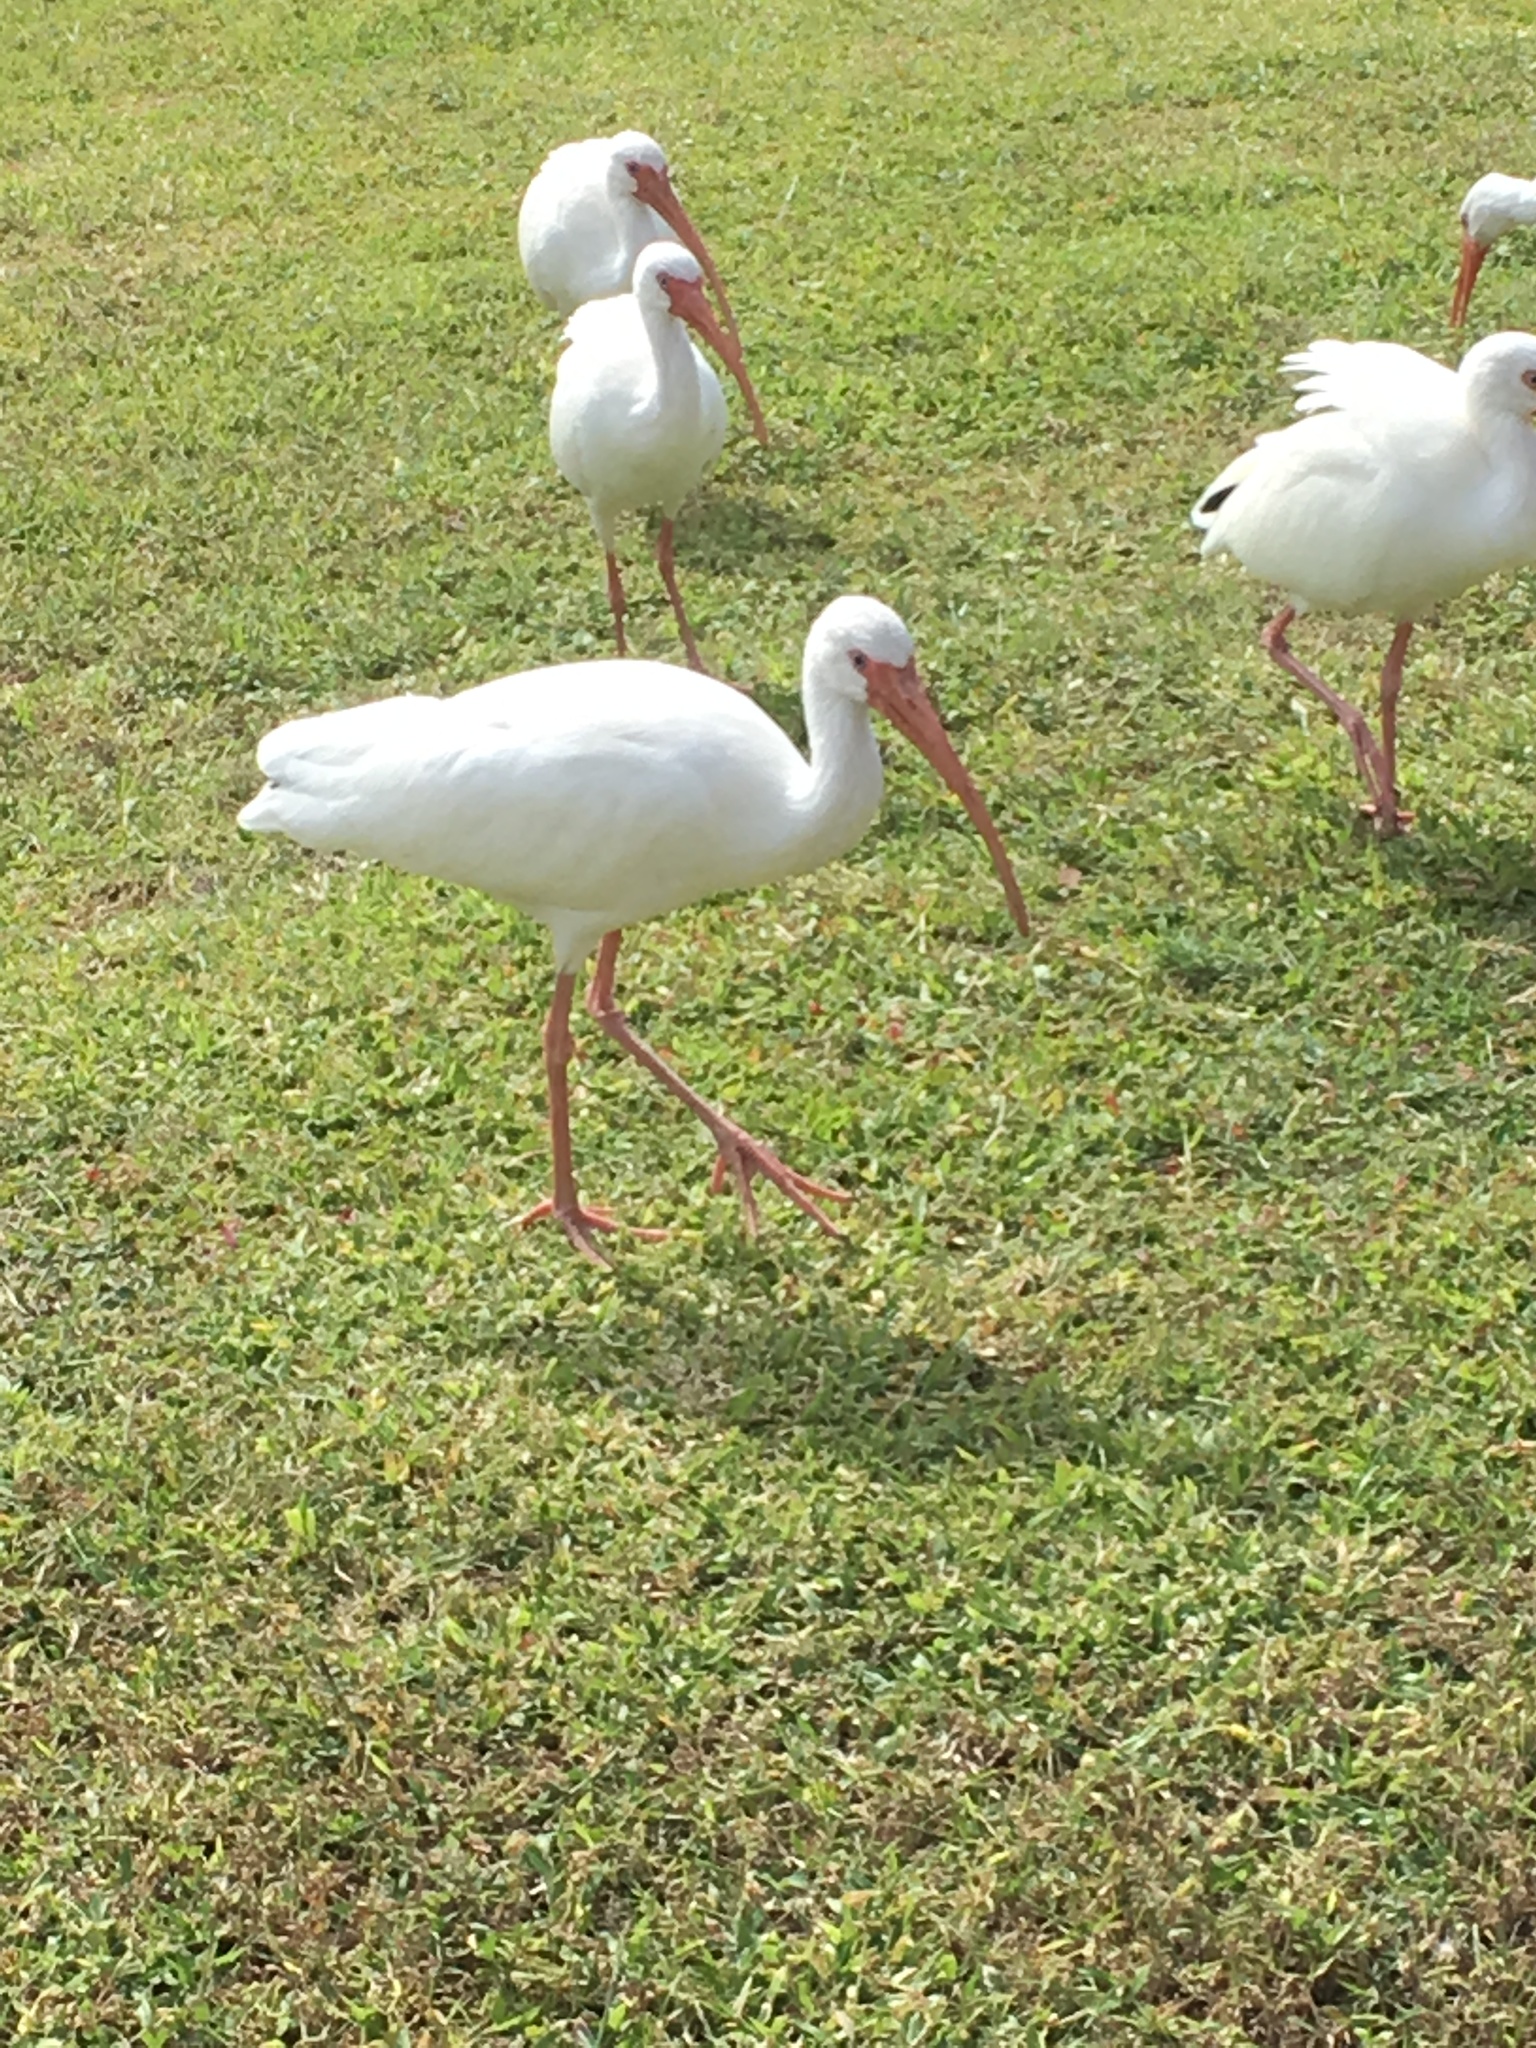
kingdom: Animalia
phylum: Chordata
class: Aves
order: Pelecaniformes
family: Threskiornithidae
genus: Eudocimus
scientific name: Eudocimus albus
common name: White ibis
